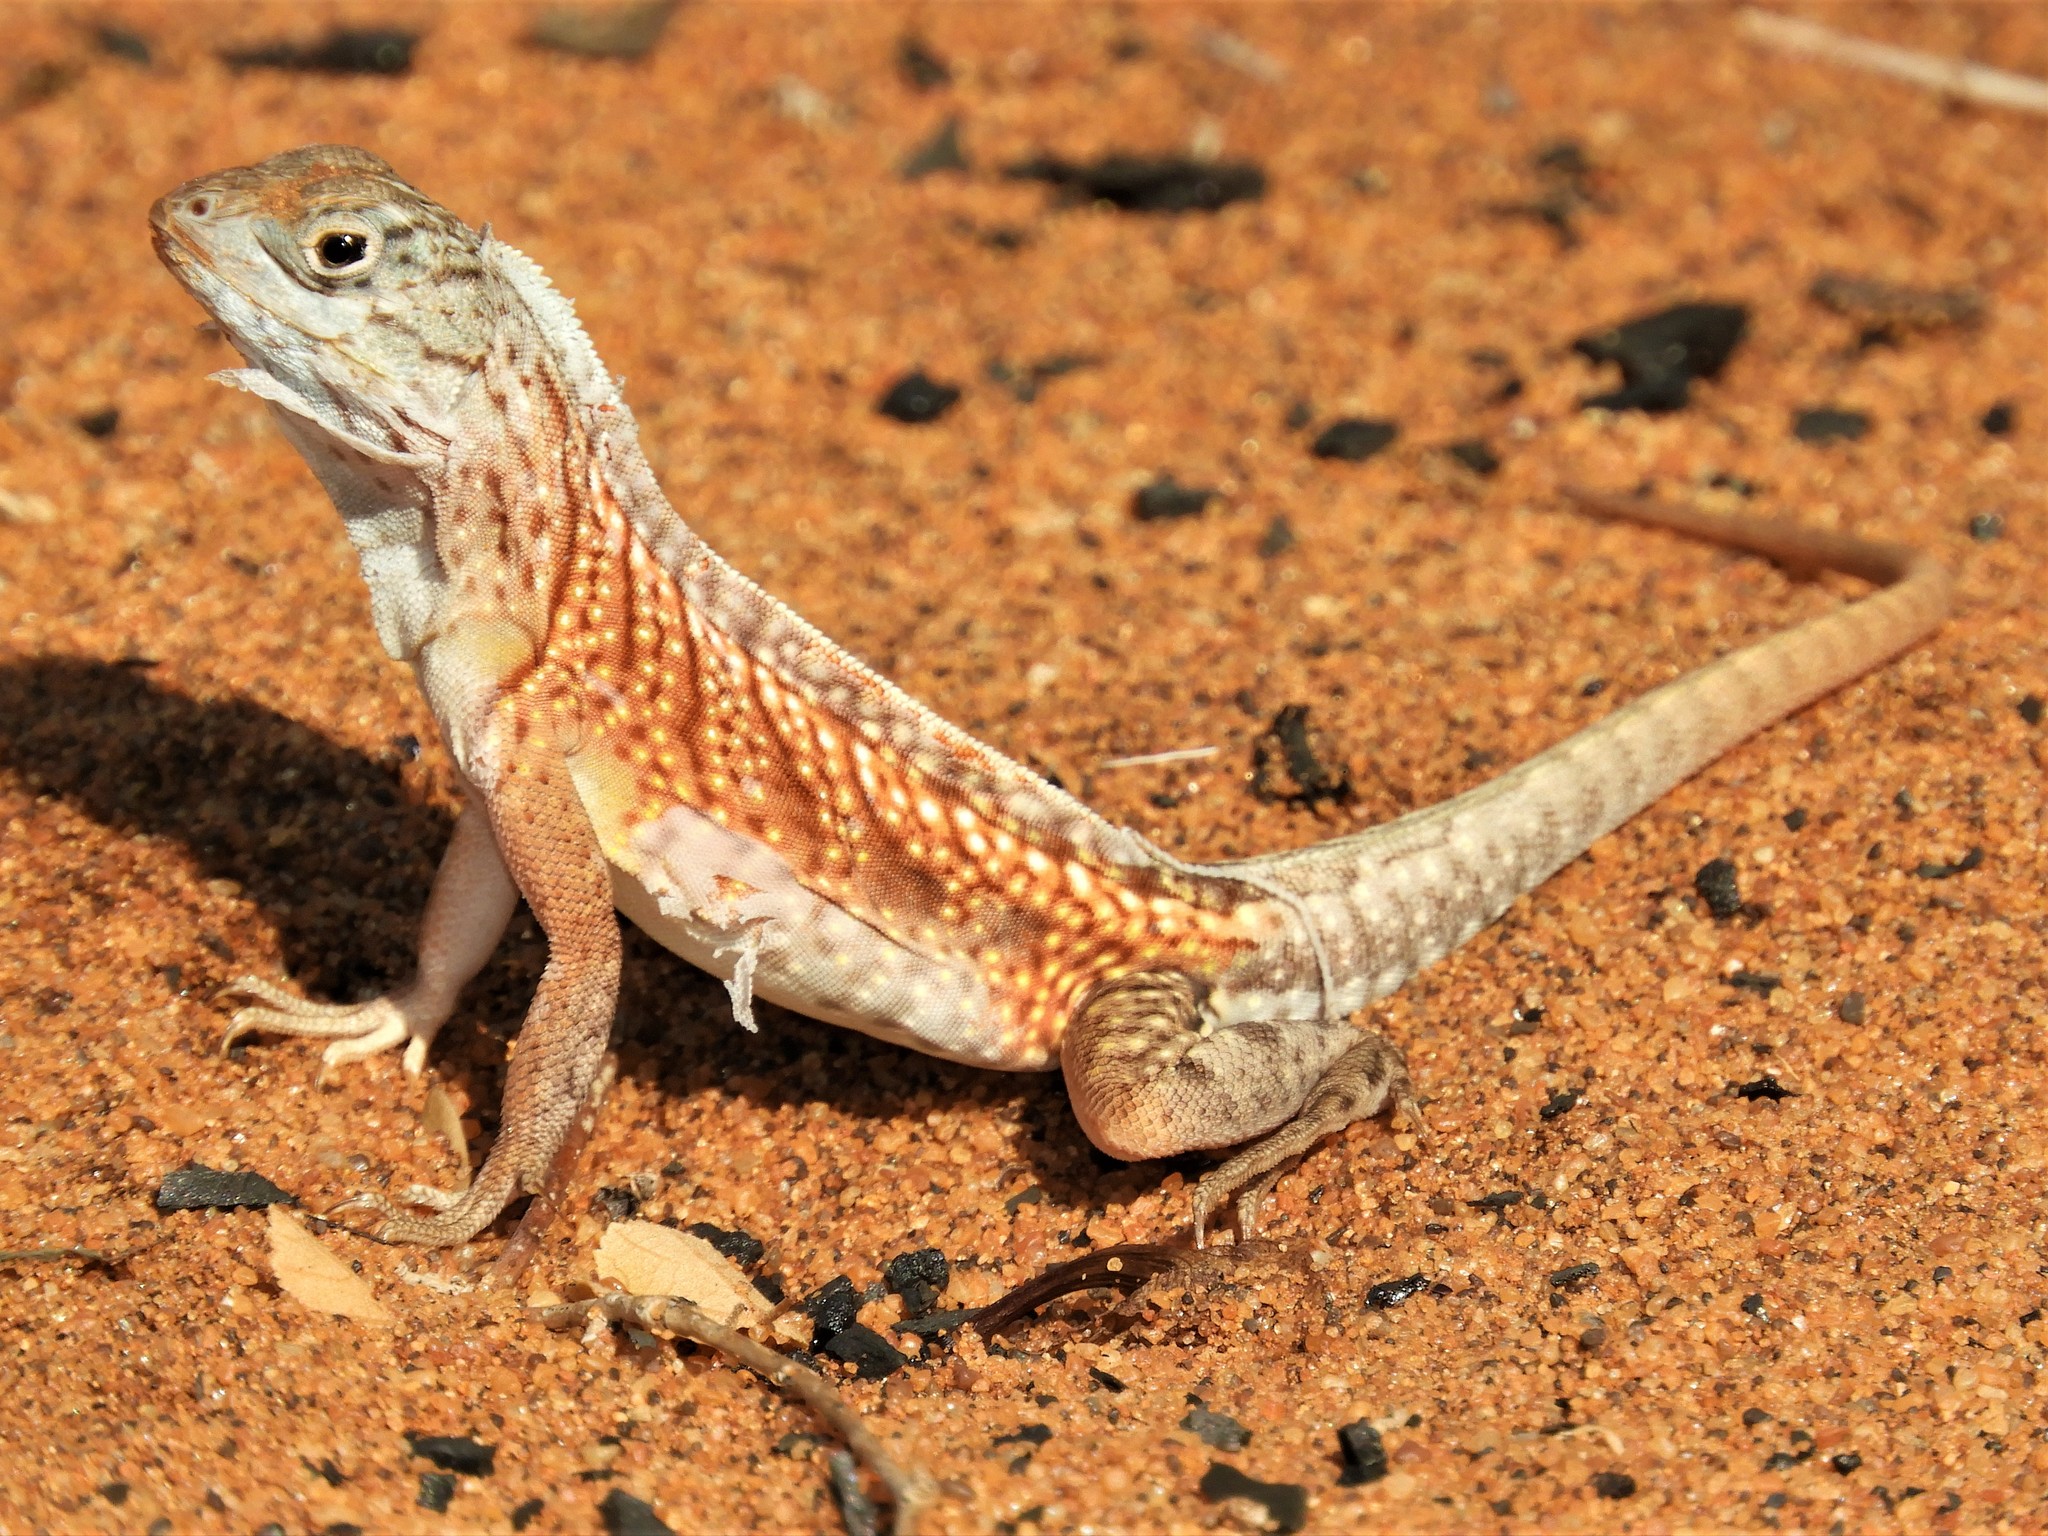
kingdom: Animalia
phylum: Chordata
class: Squamata
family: Opluridae
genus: Chalarodon
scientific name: Chalarodon madagascariensis
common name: Madagascar iguana
